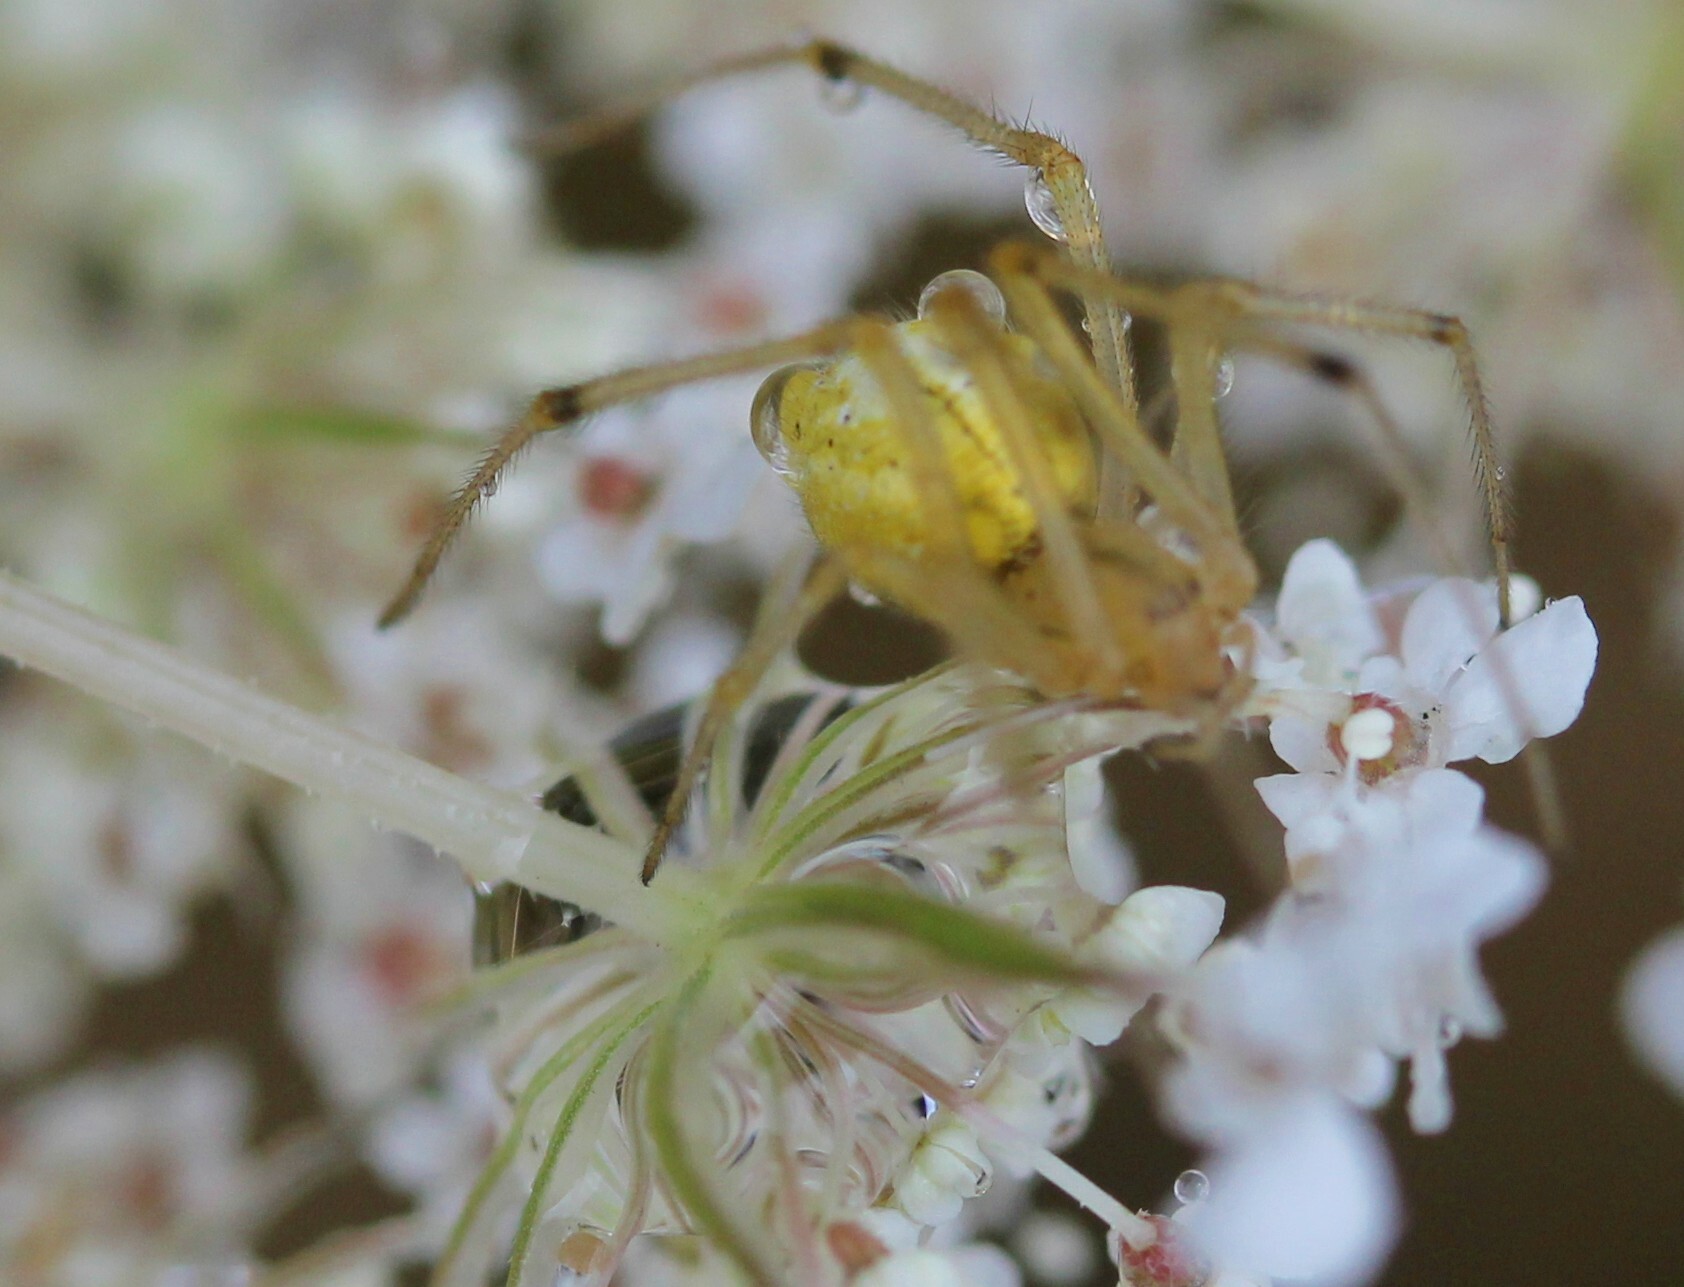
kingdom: Animalia
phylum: Arthropoda
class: Arachnida
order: Araneae
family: Theridiidae
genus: Enoplognatha
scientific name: Enoplognatha
